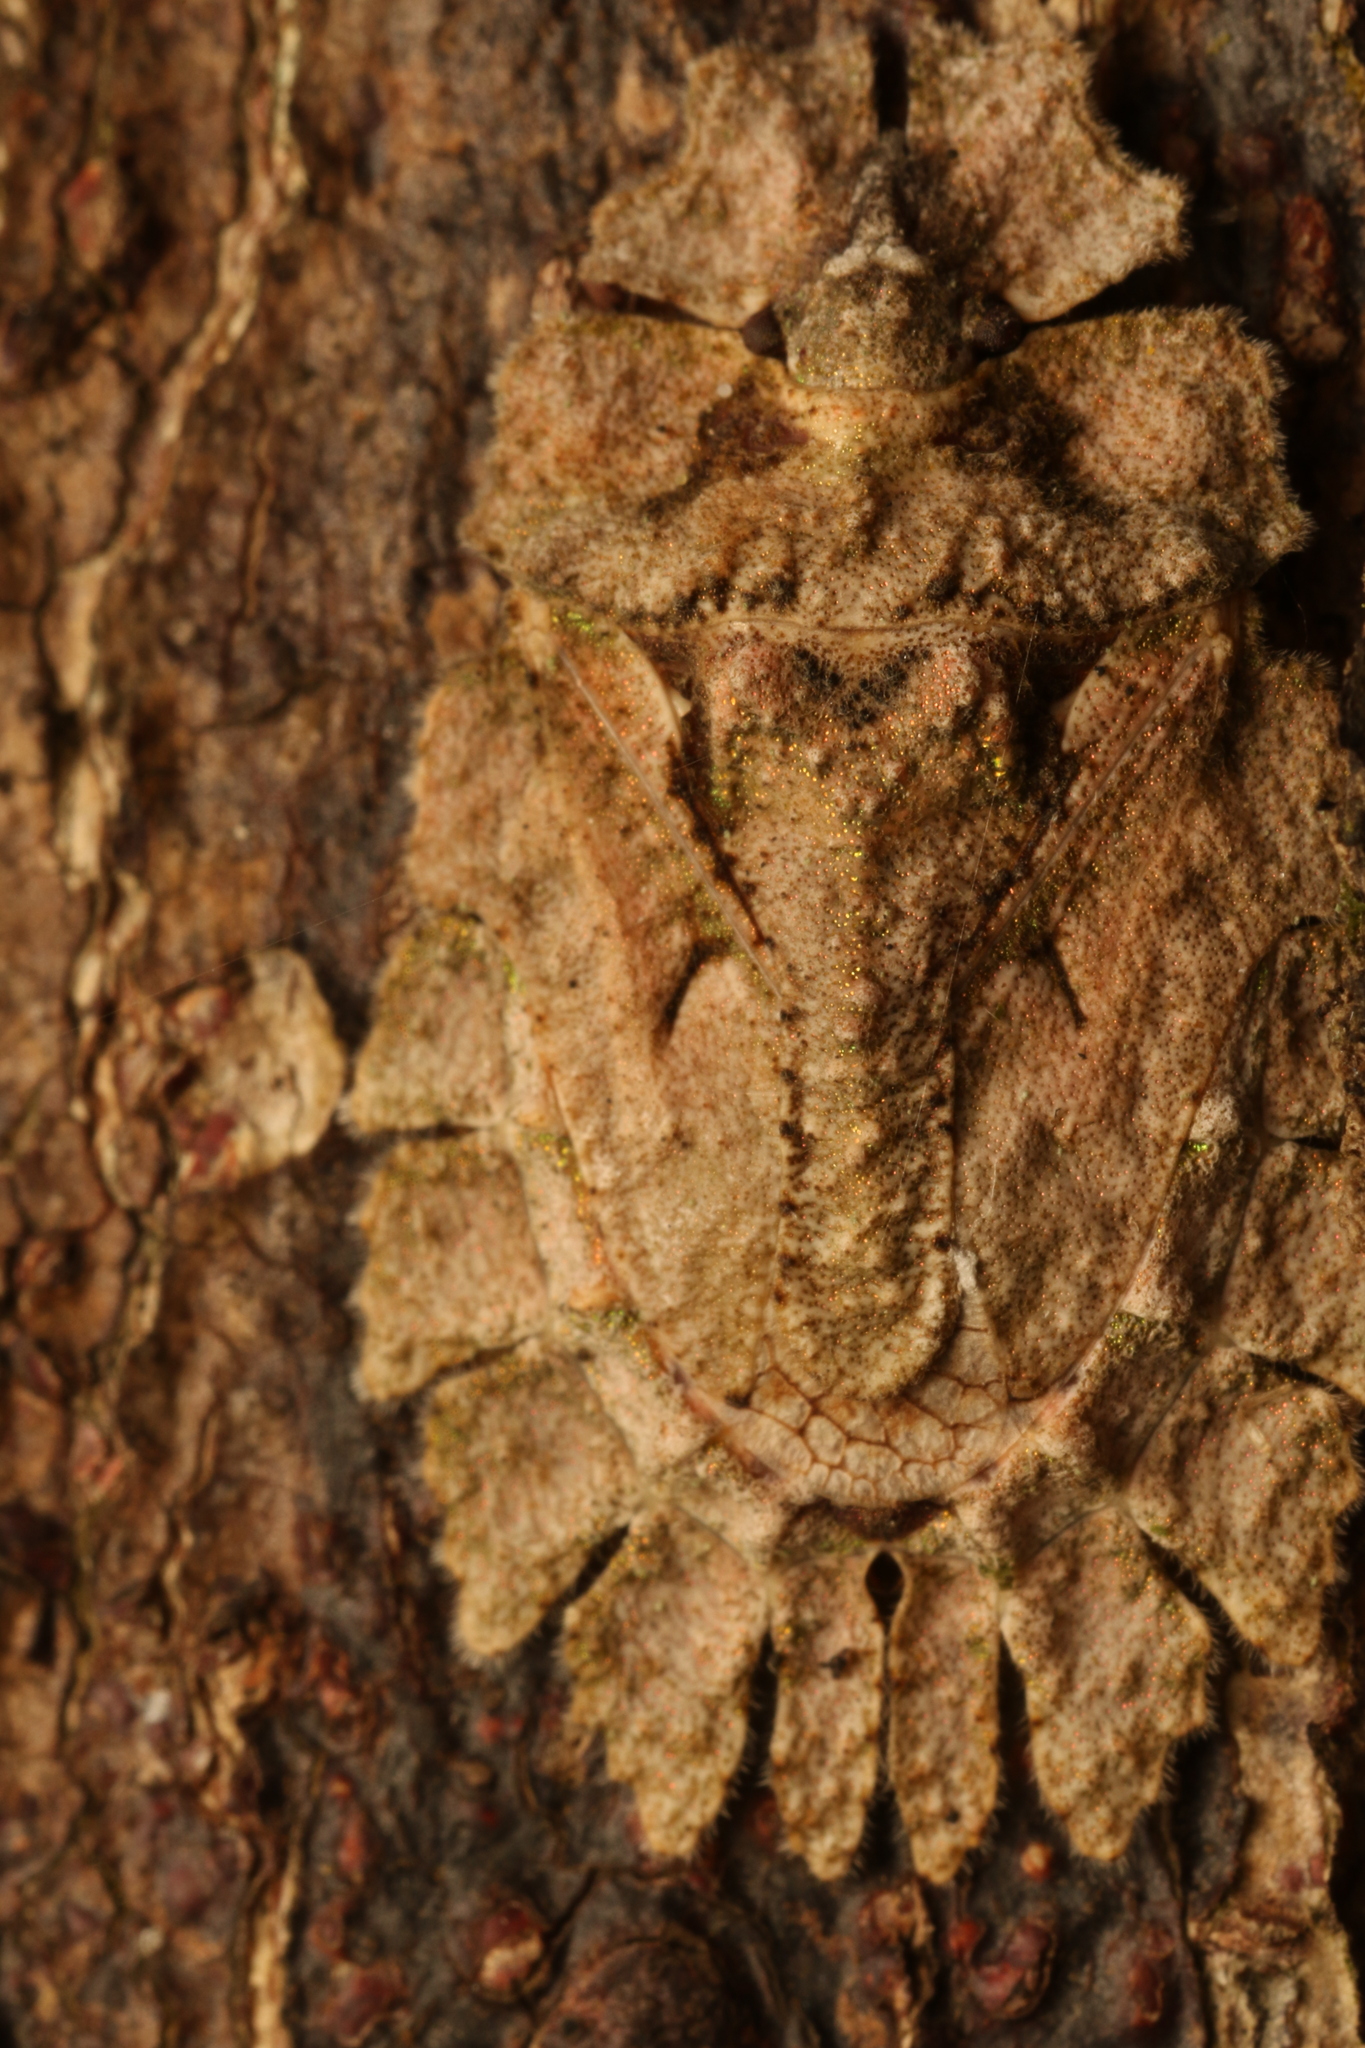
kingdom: Animalia
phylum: Arthropoda
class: Insecta
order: Hemiptera
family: Phloeidae
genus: Phloeophana
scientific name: Phloeophana longirostris
